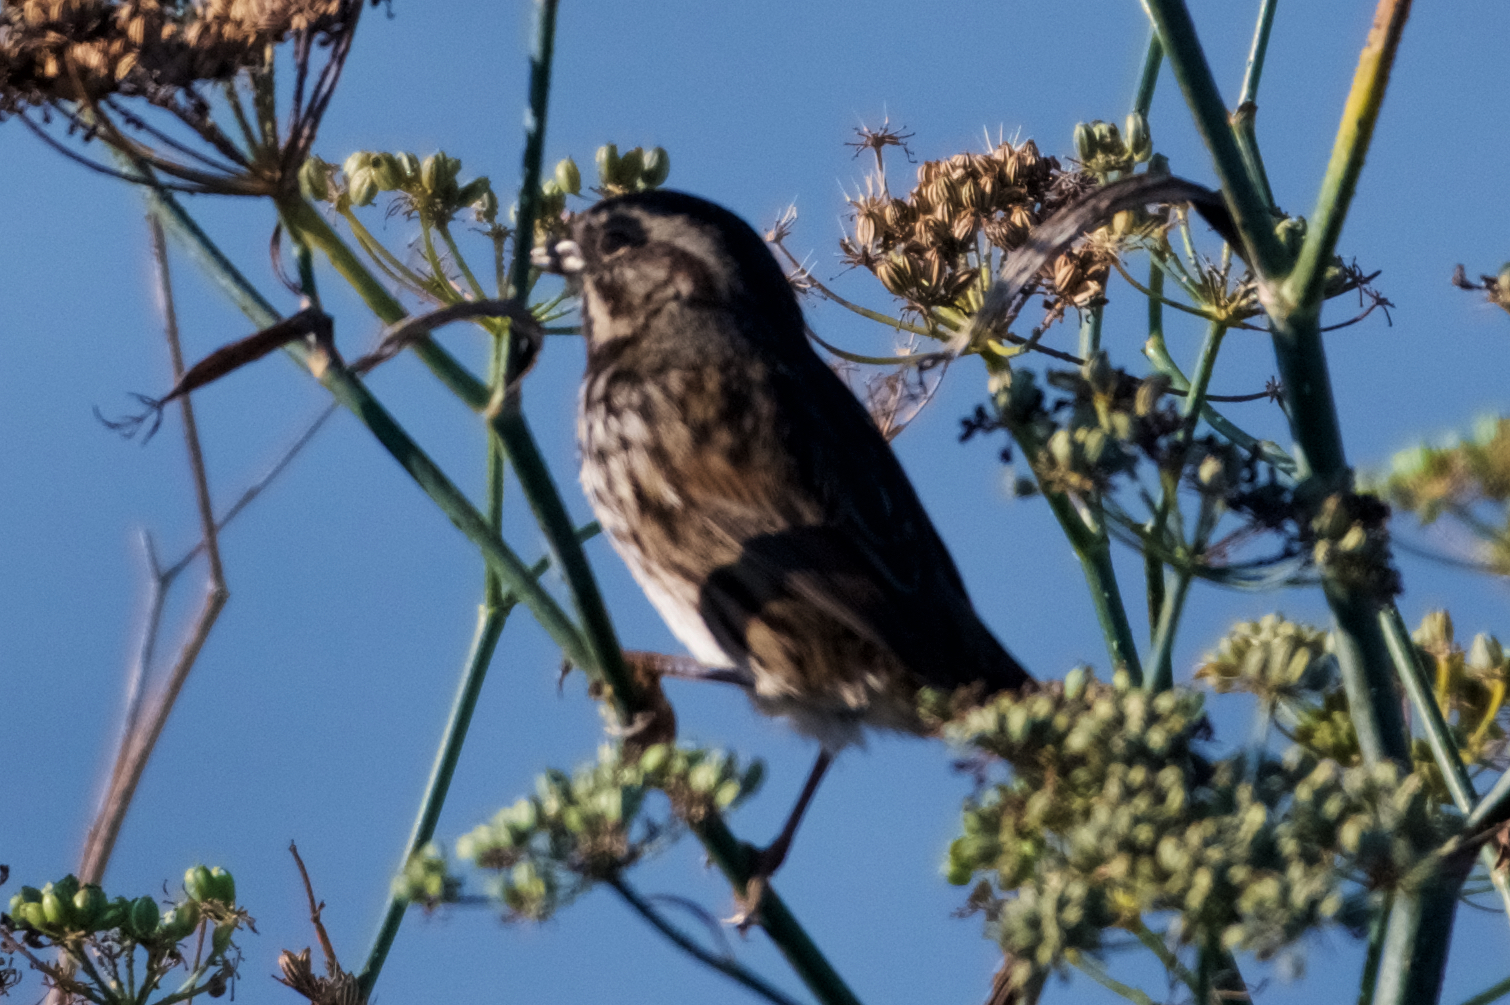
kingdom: Animalia
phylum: Chordata
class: Aves
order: Passeriformes
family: Passerellidae
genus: Melospiza
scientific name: Melospiza melodia
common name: Song sparrow
